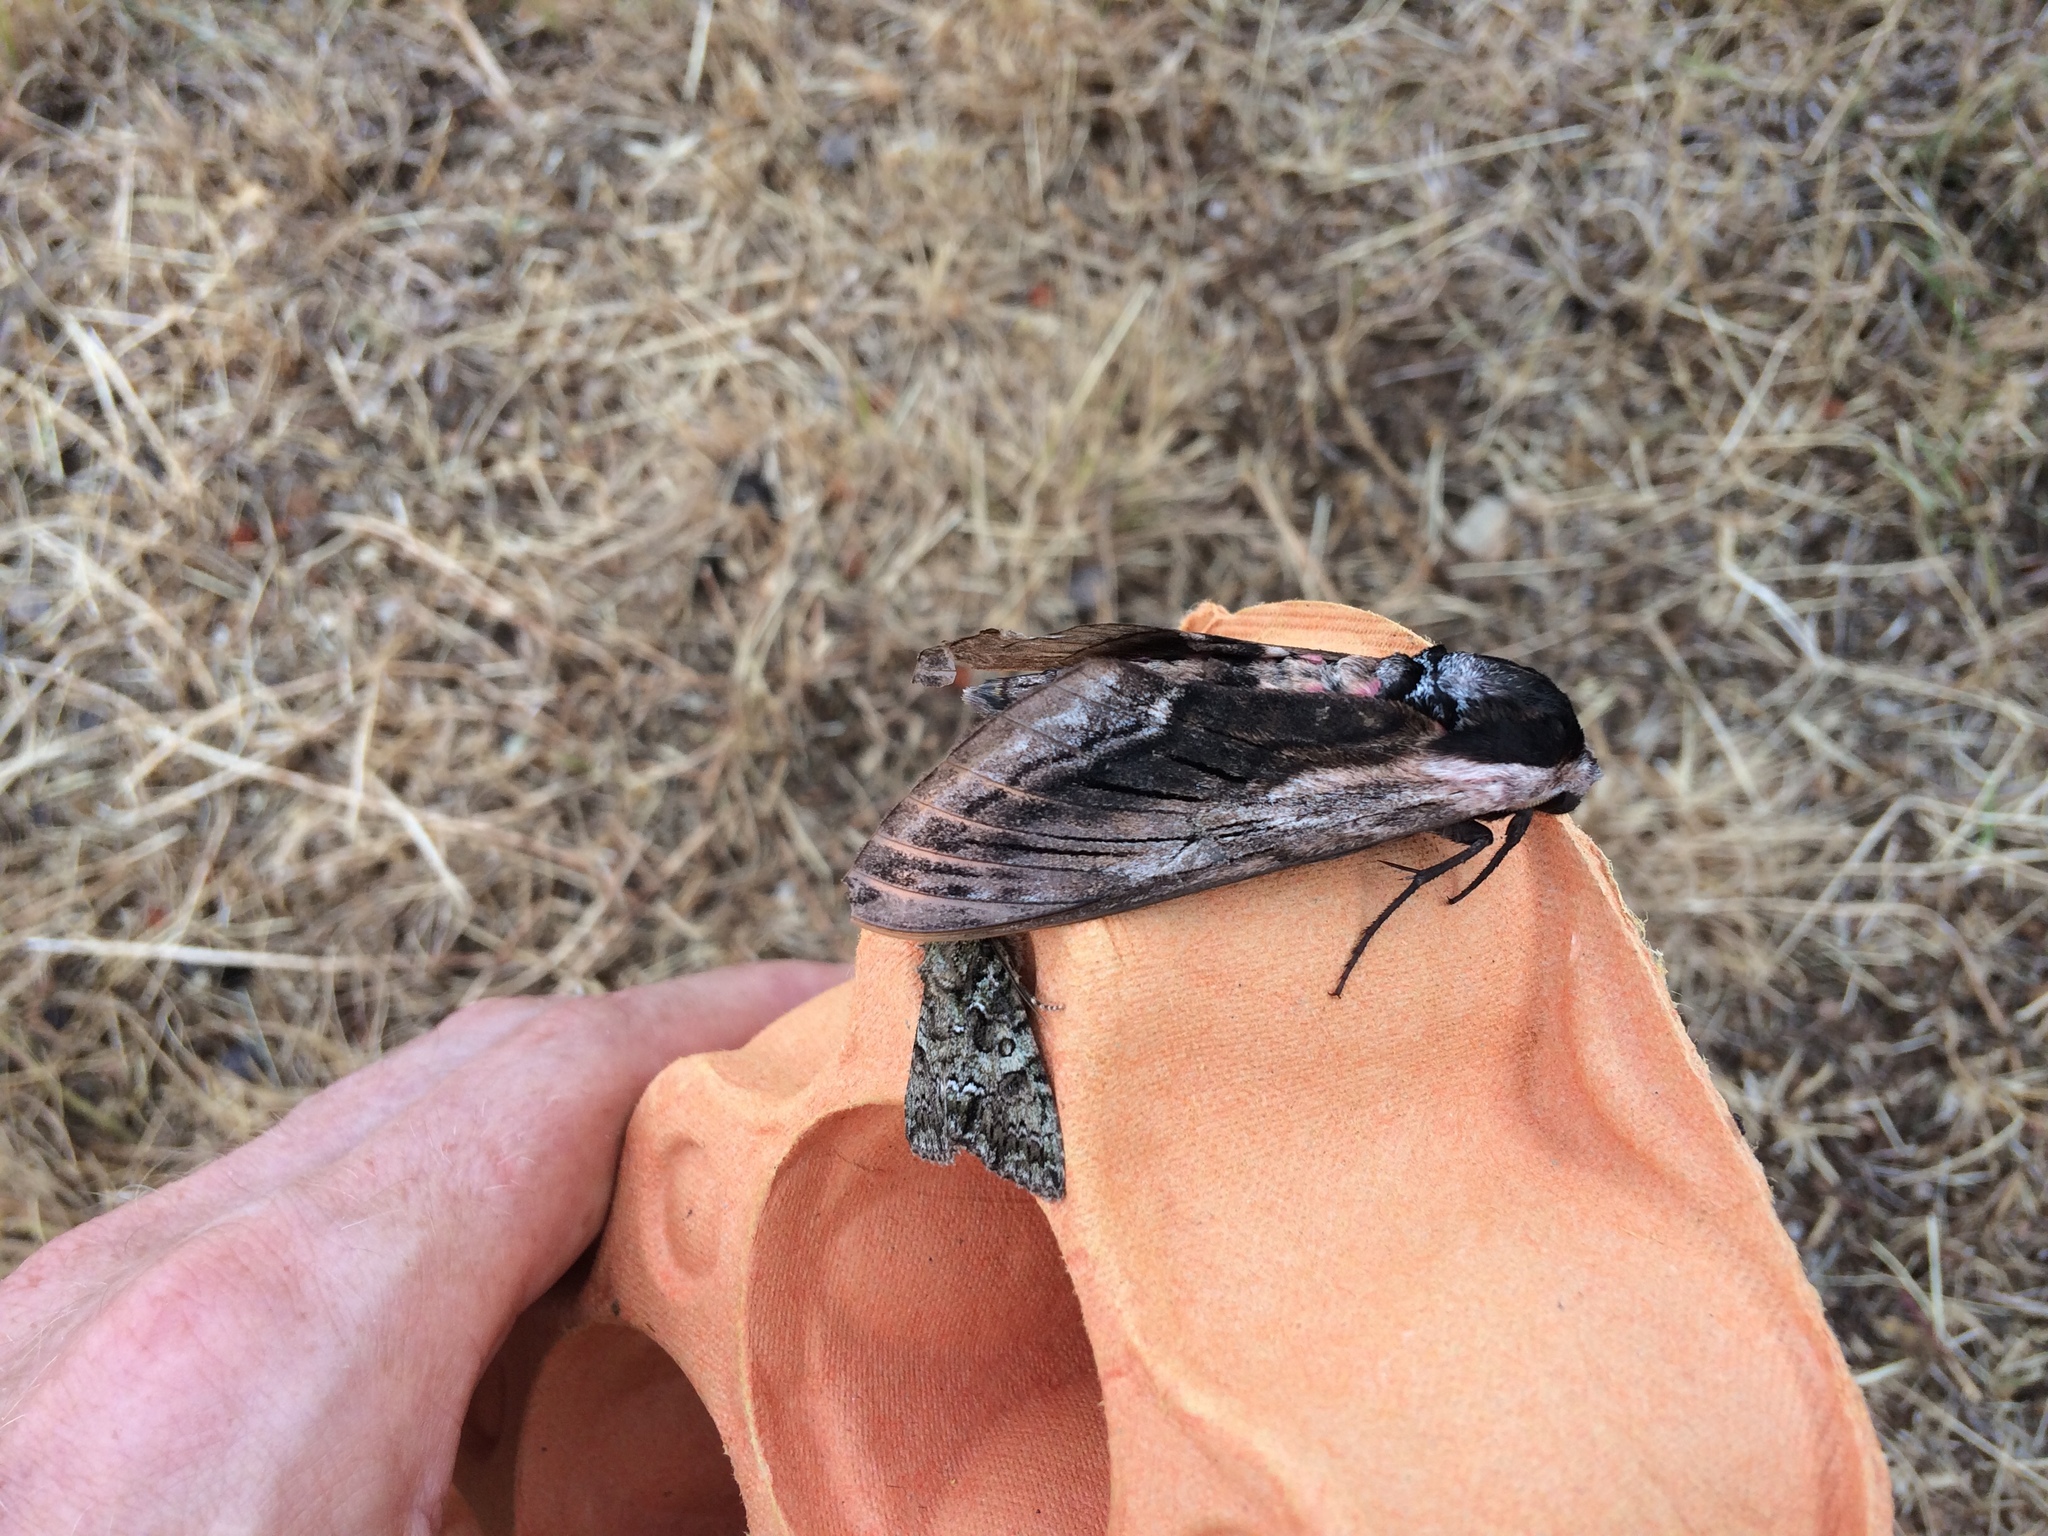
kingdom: Animalia
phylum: Arthropoda
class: Insecta
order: Lepidoptera
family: Sphingidae
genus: Sphinx
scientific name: Sphinx ligustri
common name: Privet hawk-moth
